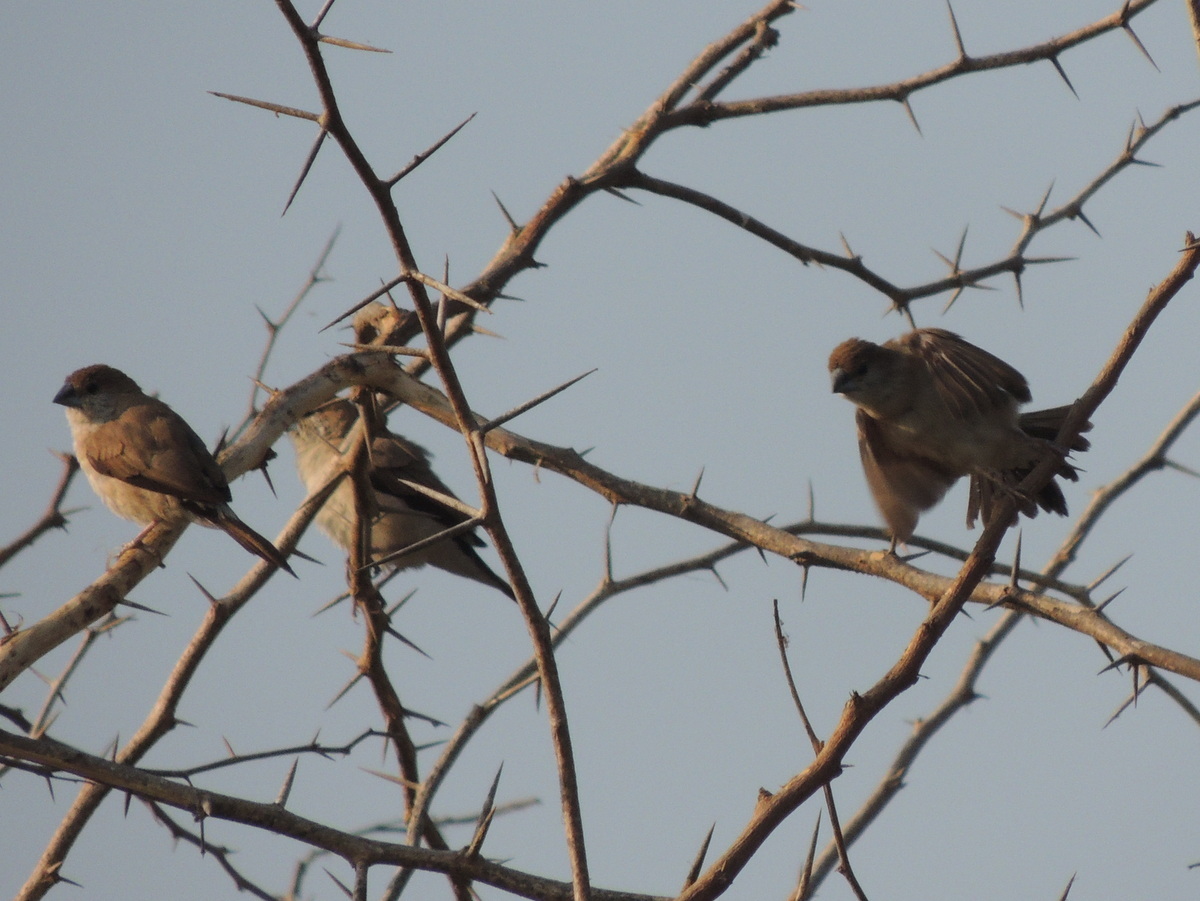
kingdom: Animalia
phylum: Chordata
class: Aves
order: Passeriformes
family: Estrildidae
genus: Euodice
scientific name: Euodice malabarica
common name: Indian silverbill
